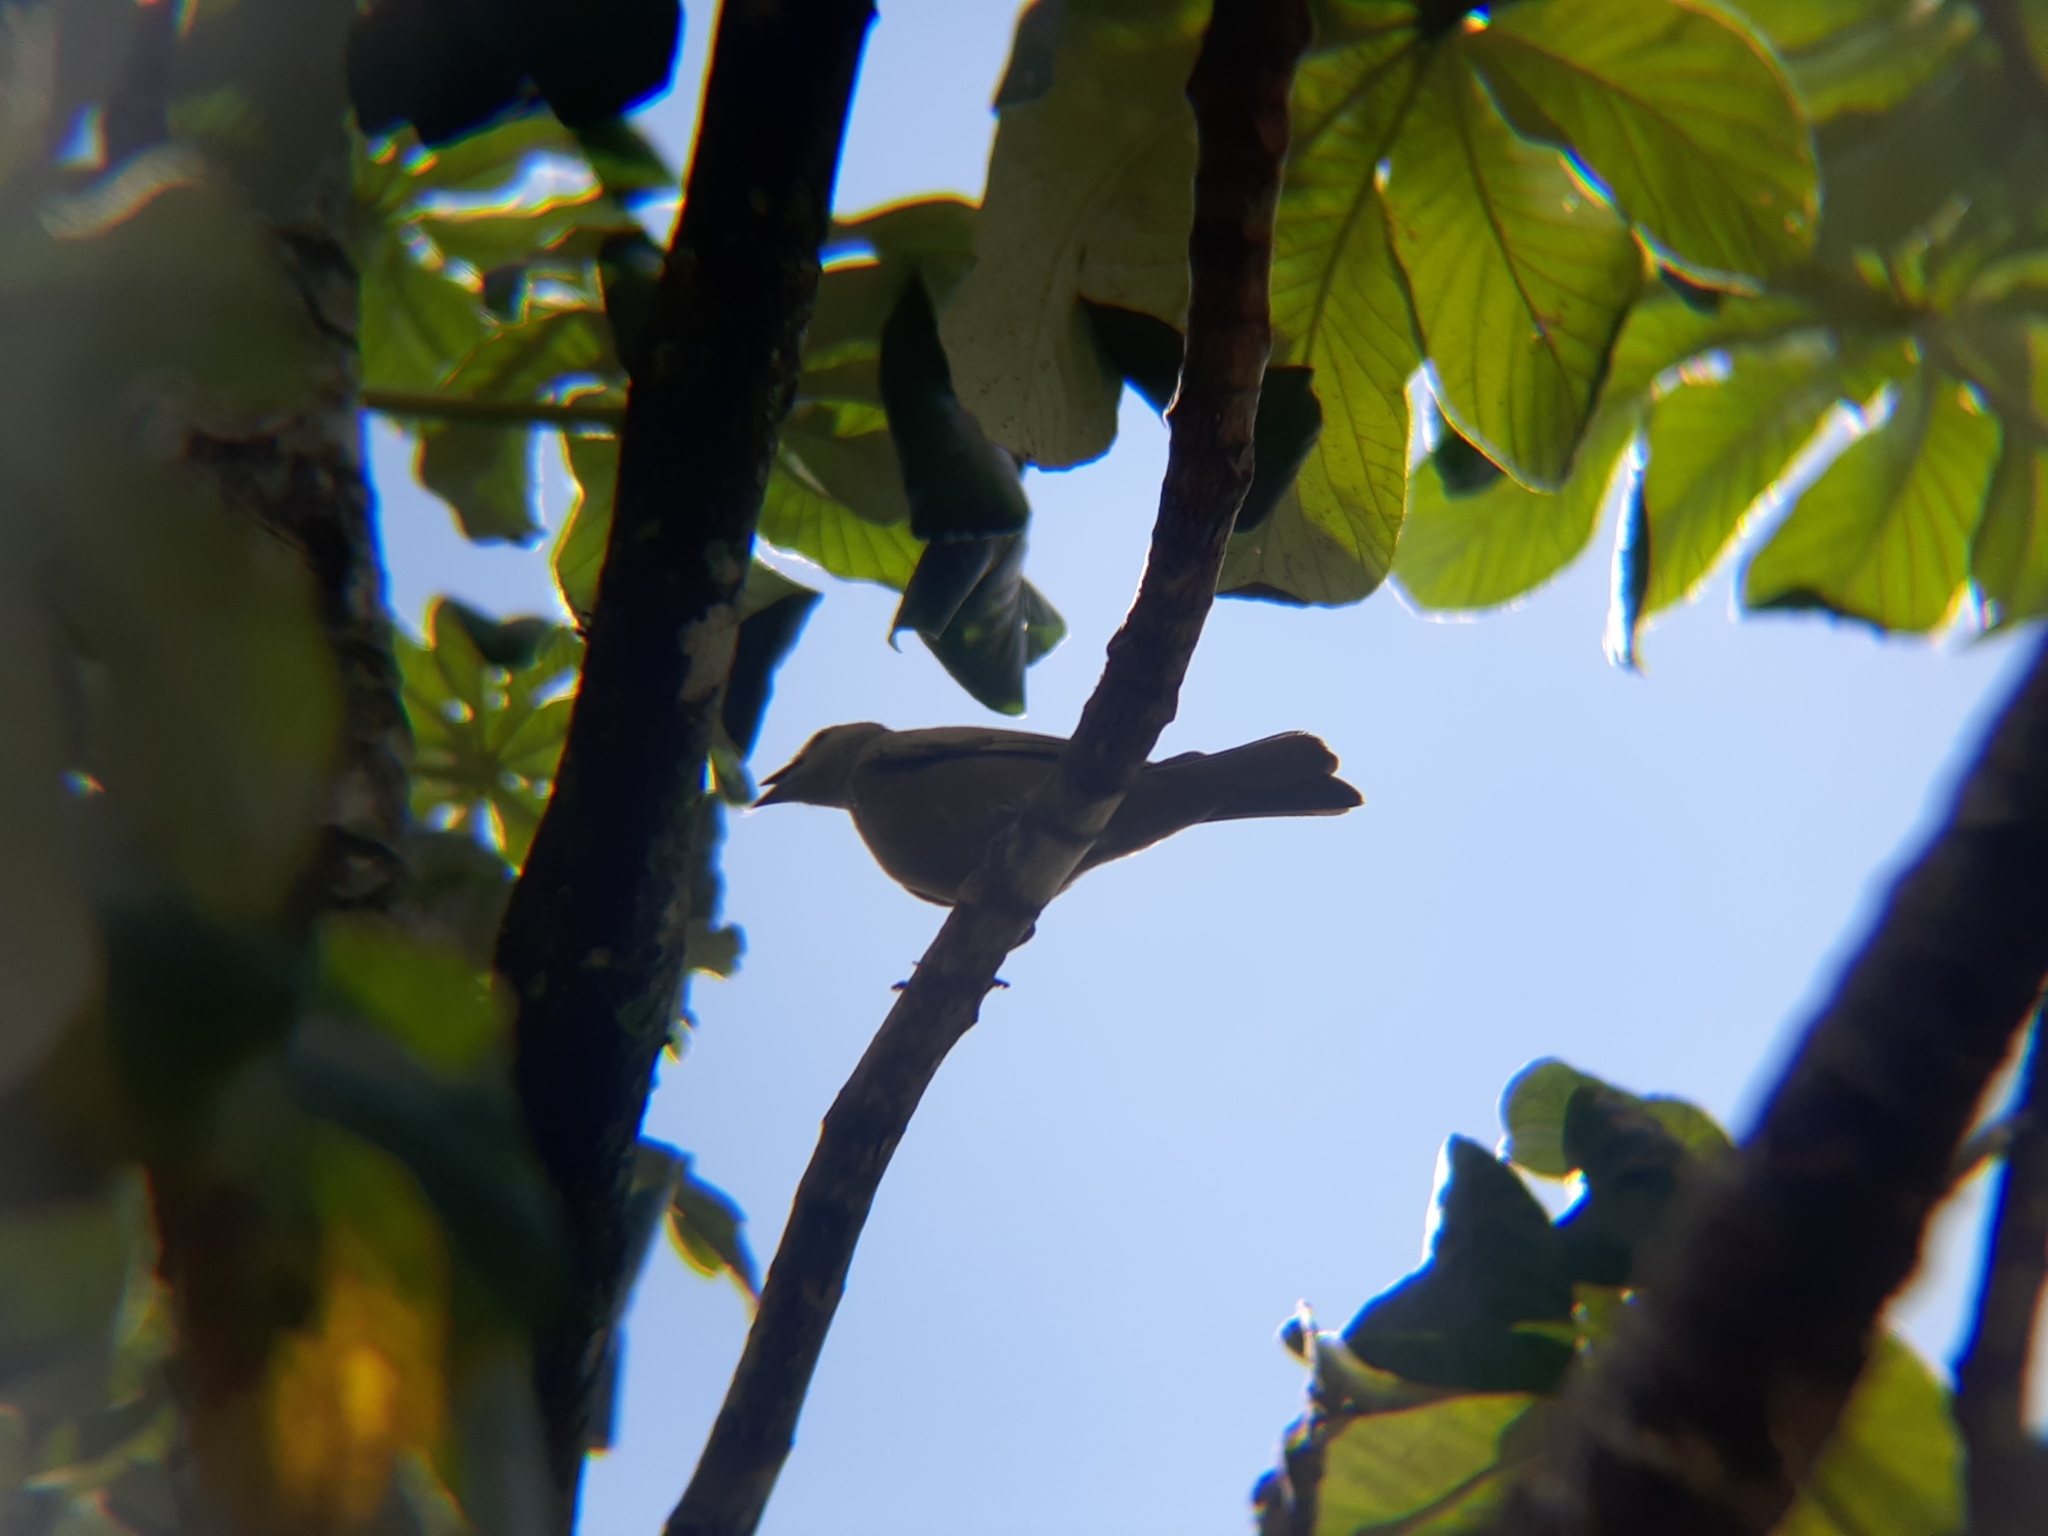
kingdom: Animalia
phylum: Chordata
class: Aves
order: Passeriformes
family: Thraupidae
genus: Thraupis
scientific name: Thraupis palmarum
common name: Palm tanager
